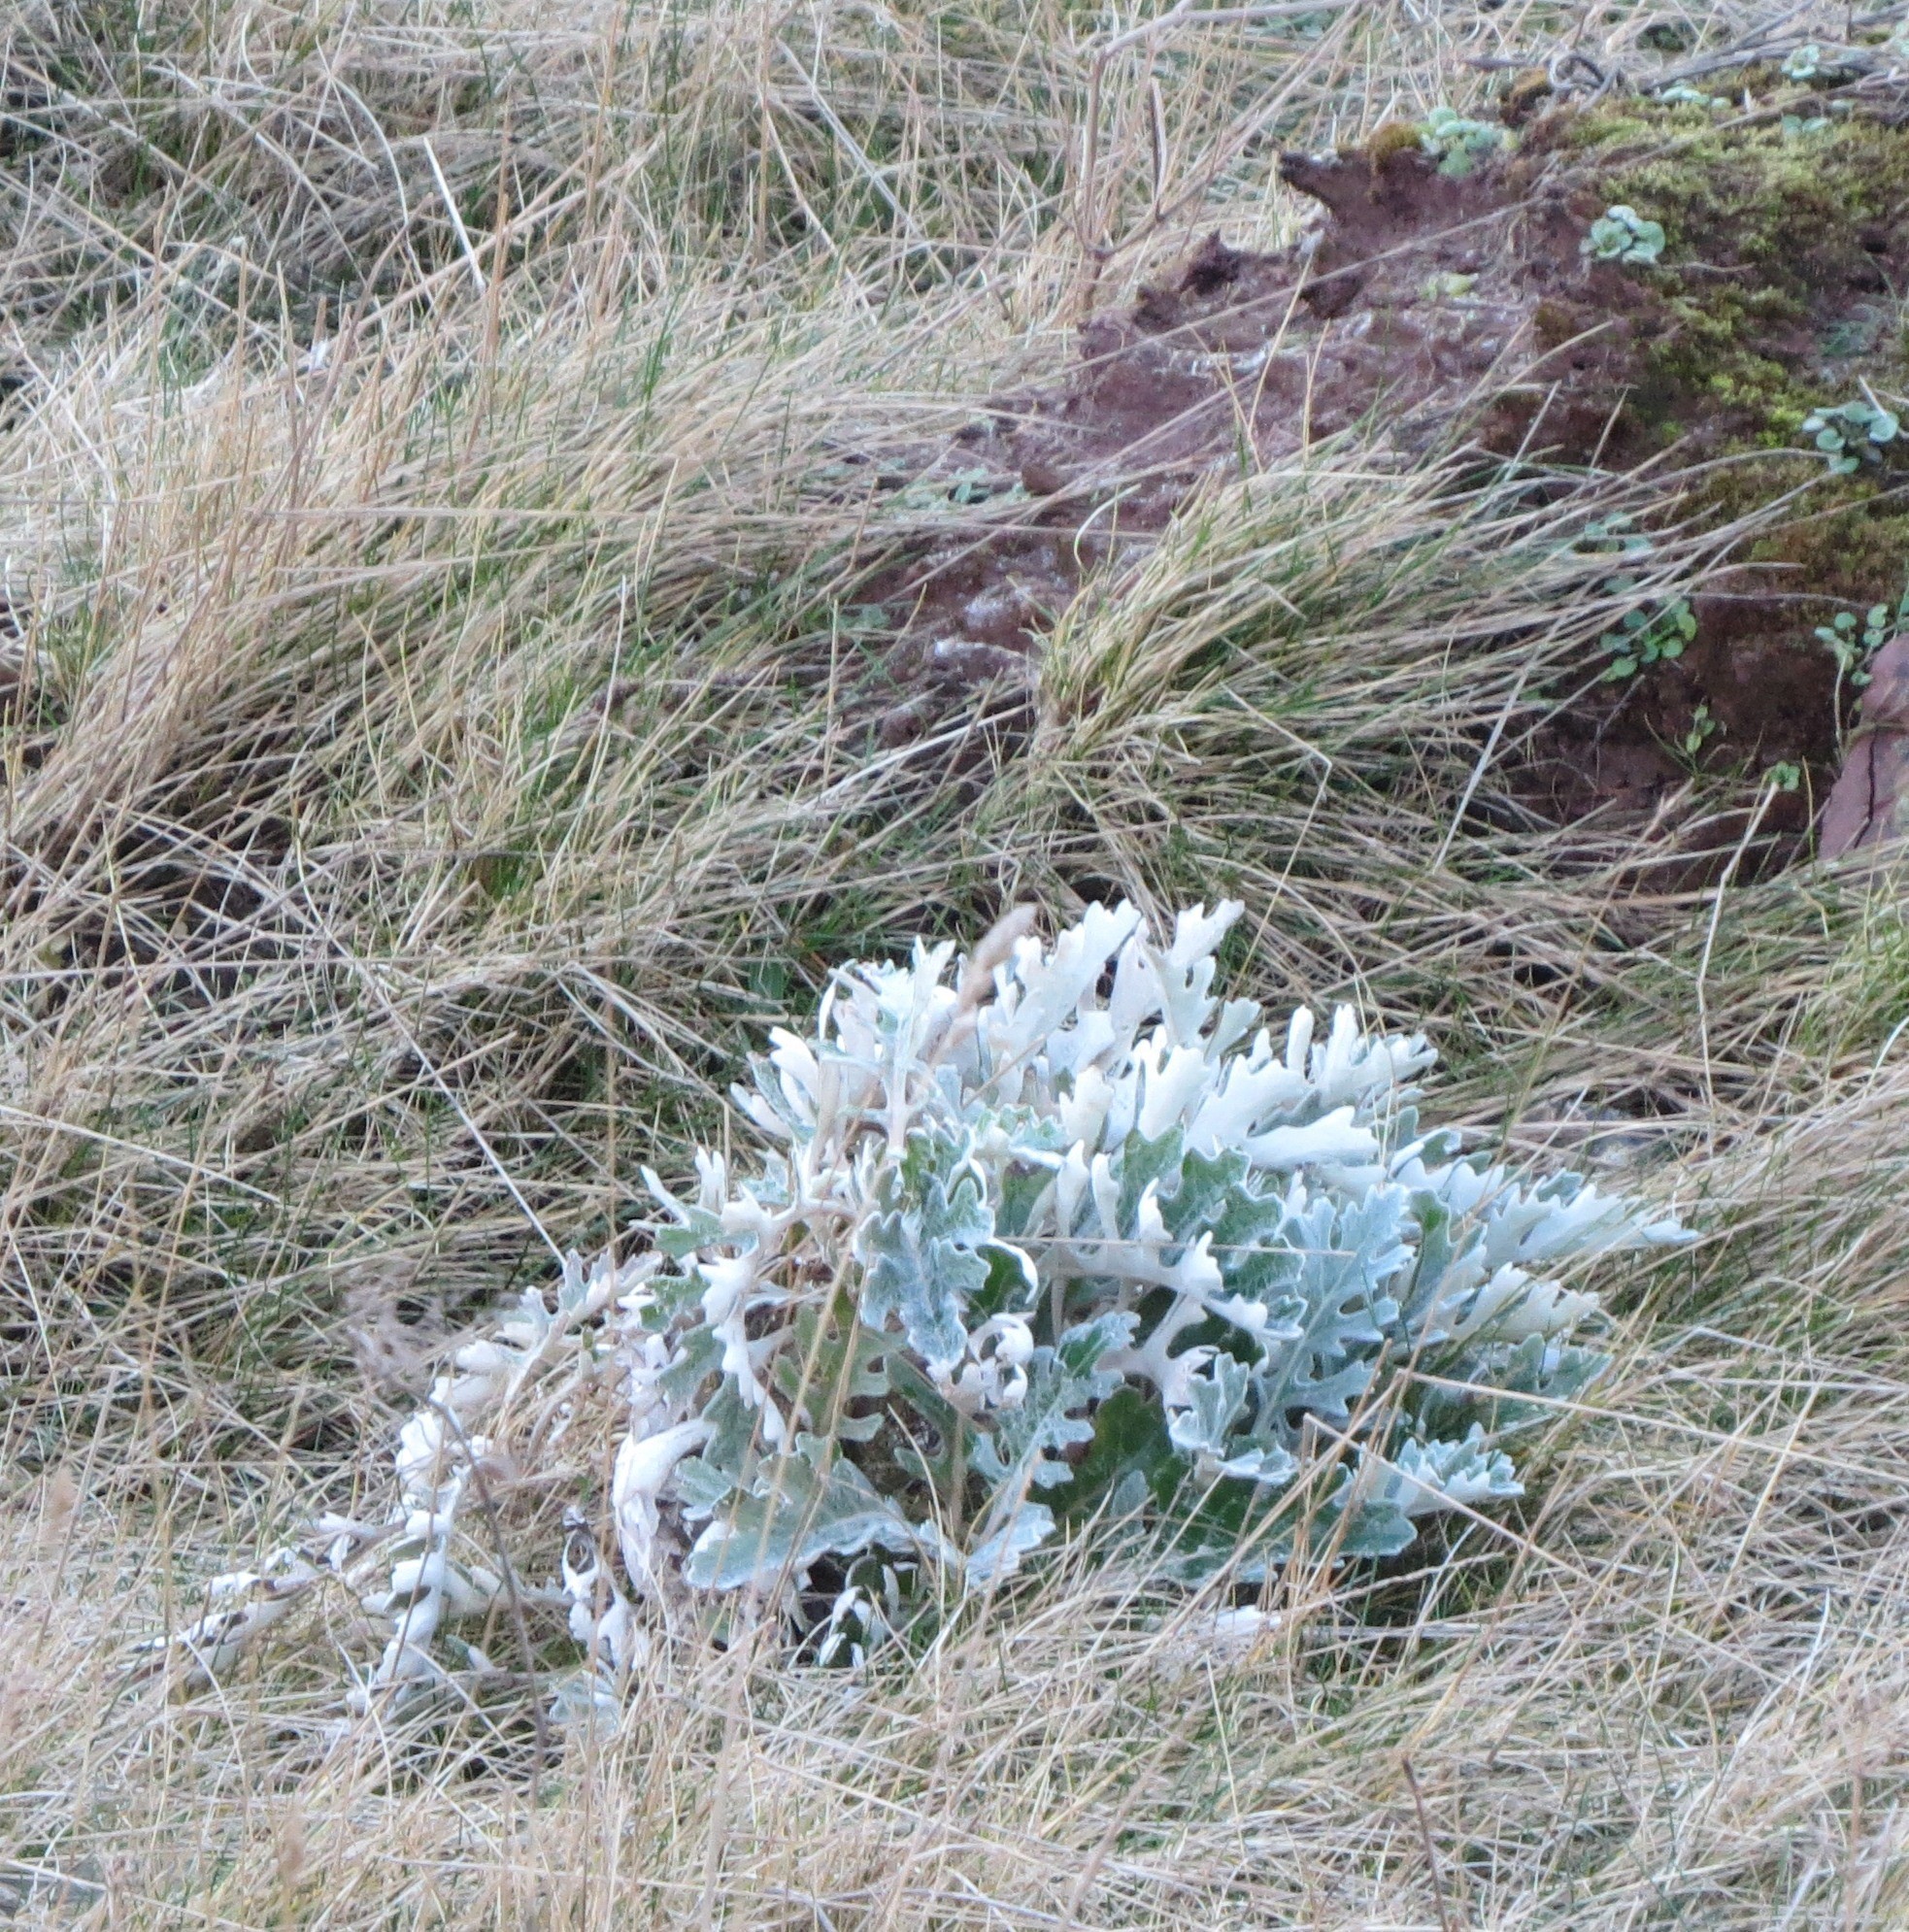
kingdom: Plantae
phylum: Tracheophyta
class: Magnoliopsida
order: Asterales
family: Asteraceae
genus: Jacobaea
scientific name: Jacobaea maritima
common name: Silver ragwort
